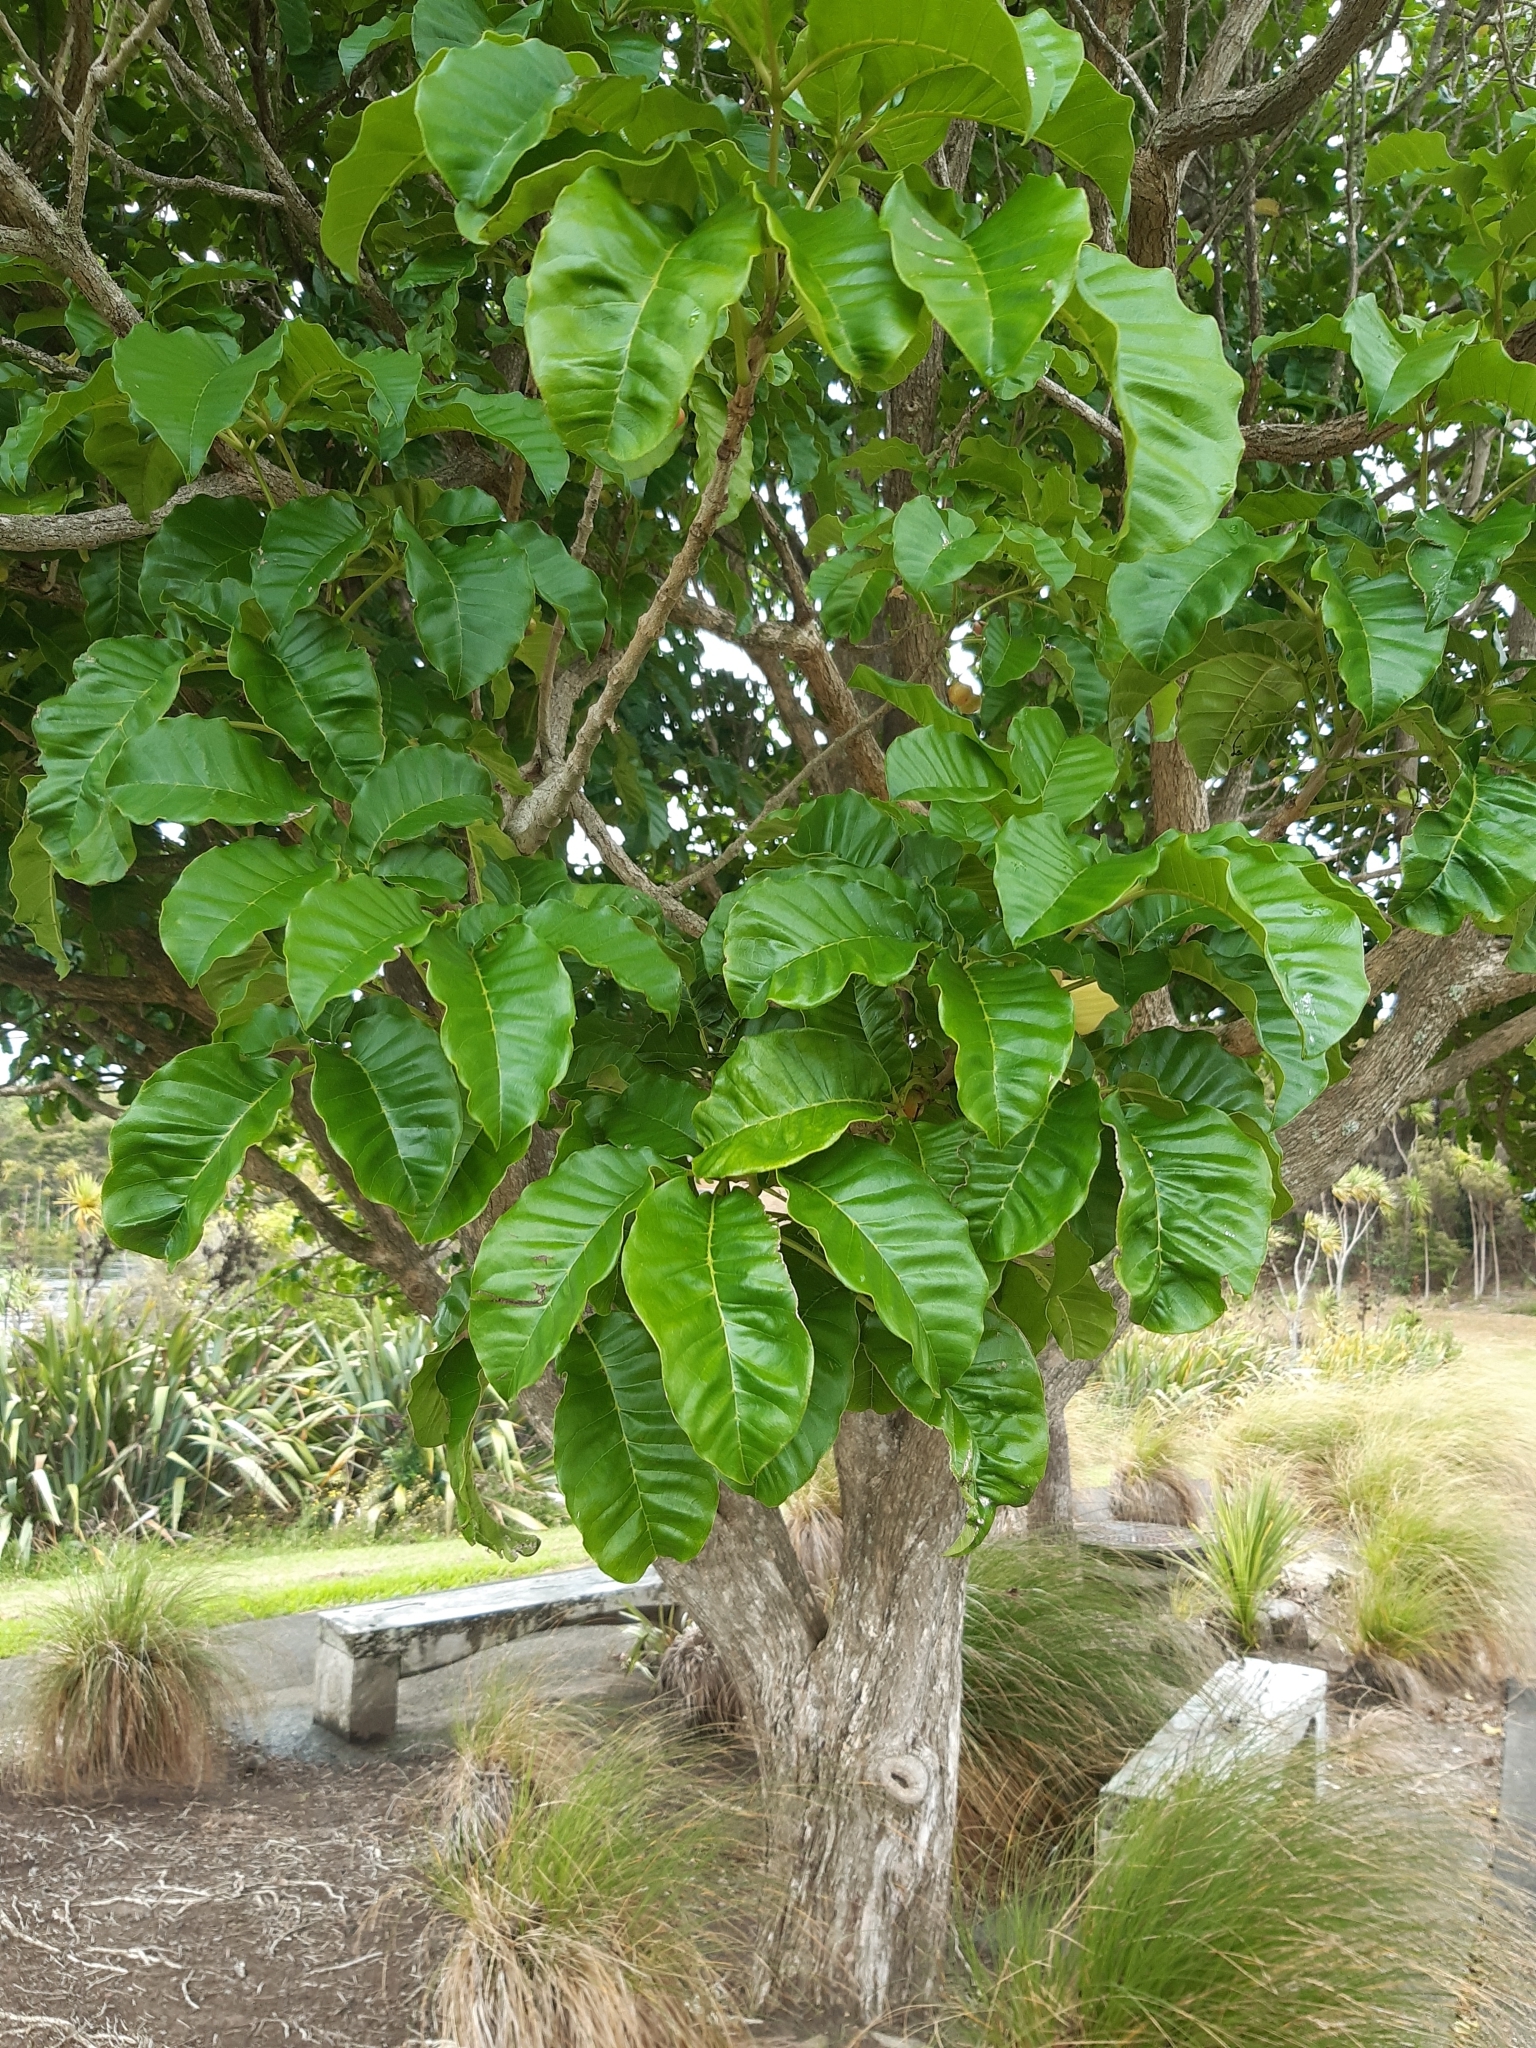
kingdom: Plantae
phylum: Tracheophyta
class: Magnoliopsida
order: Lamiales
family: Lamiaceae
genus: Vitex
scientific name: Vitex lucens
